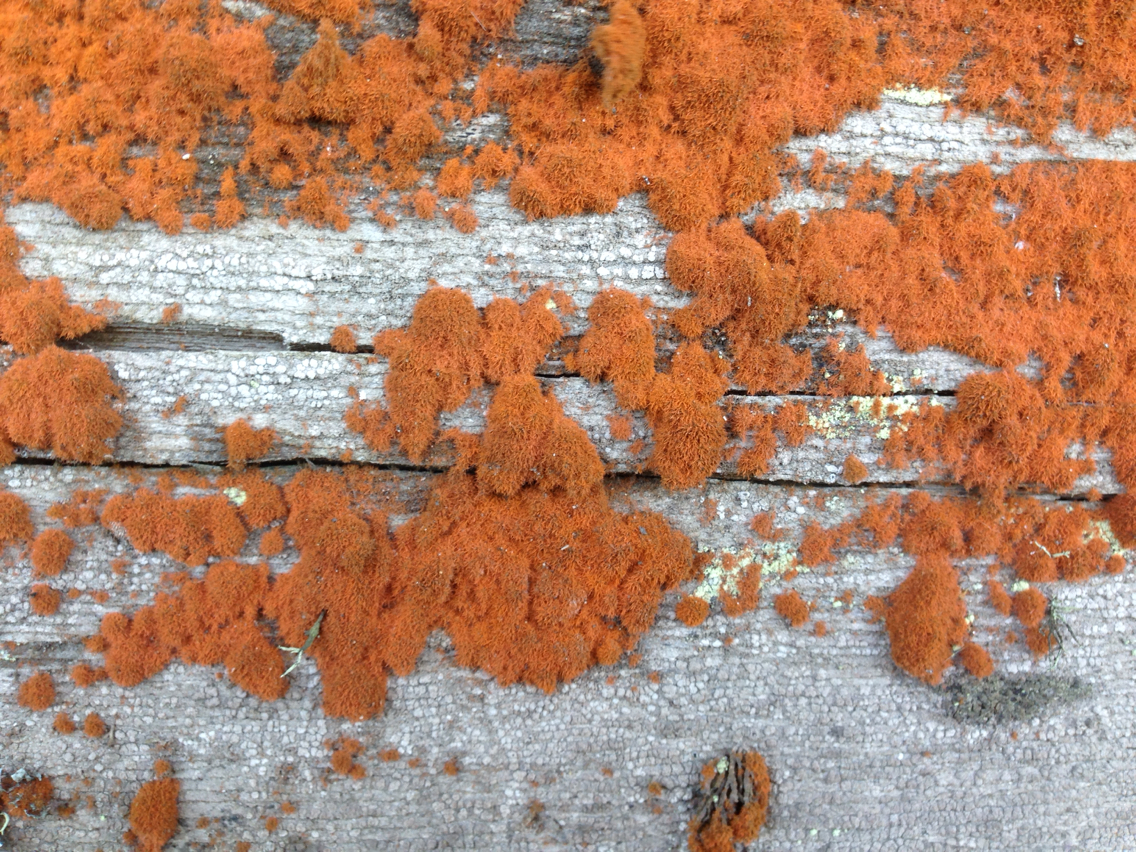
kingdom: Plantae
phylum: Chlorophyta
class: Ulvophyceae
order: Trentepohliales
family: Trentepohliaceae
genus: Trentepohlia
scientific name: Trentepohlia aurea
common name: Orange rock hair
